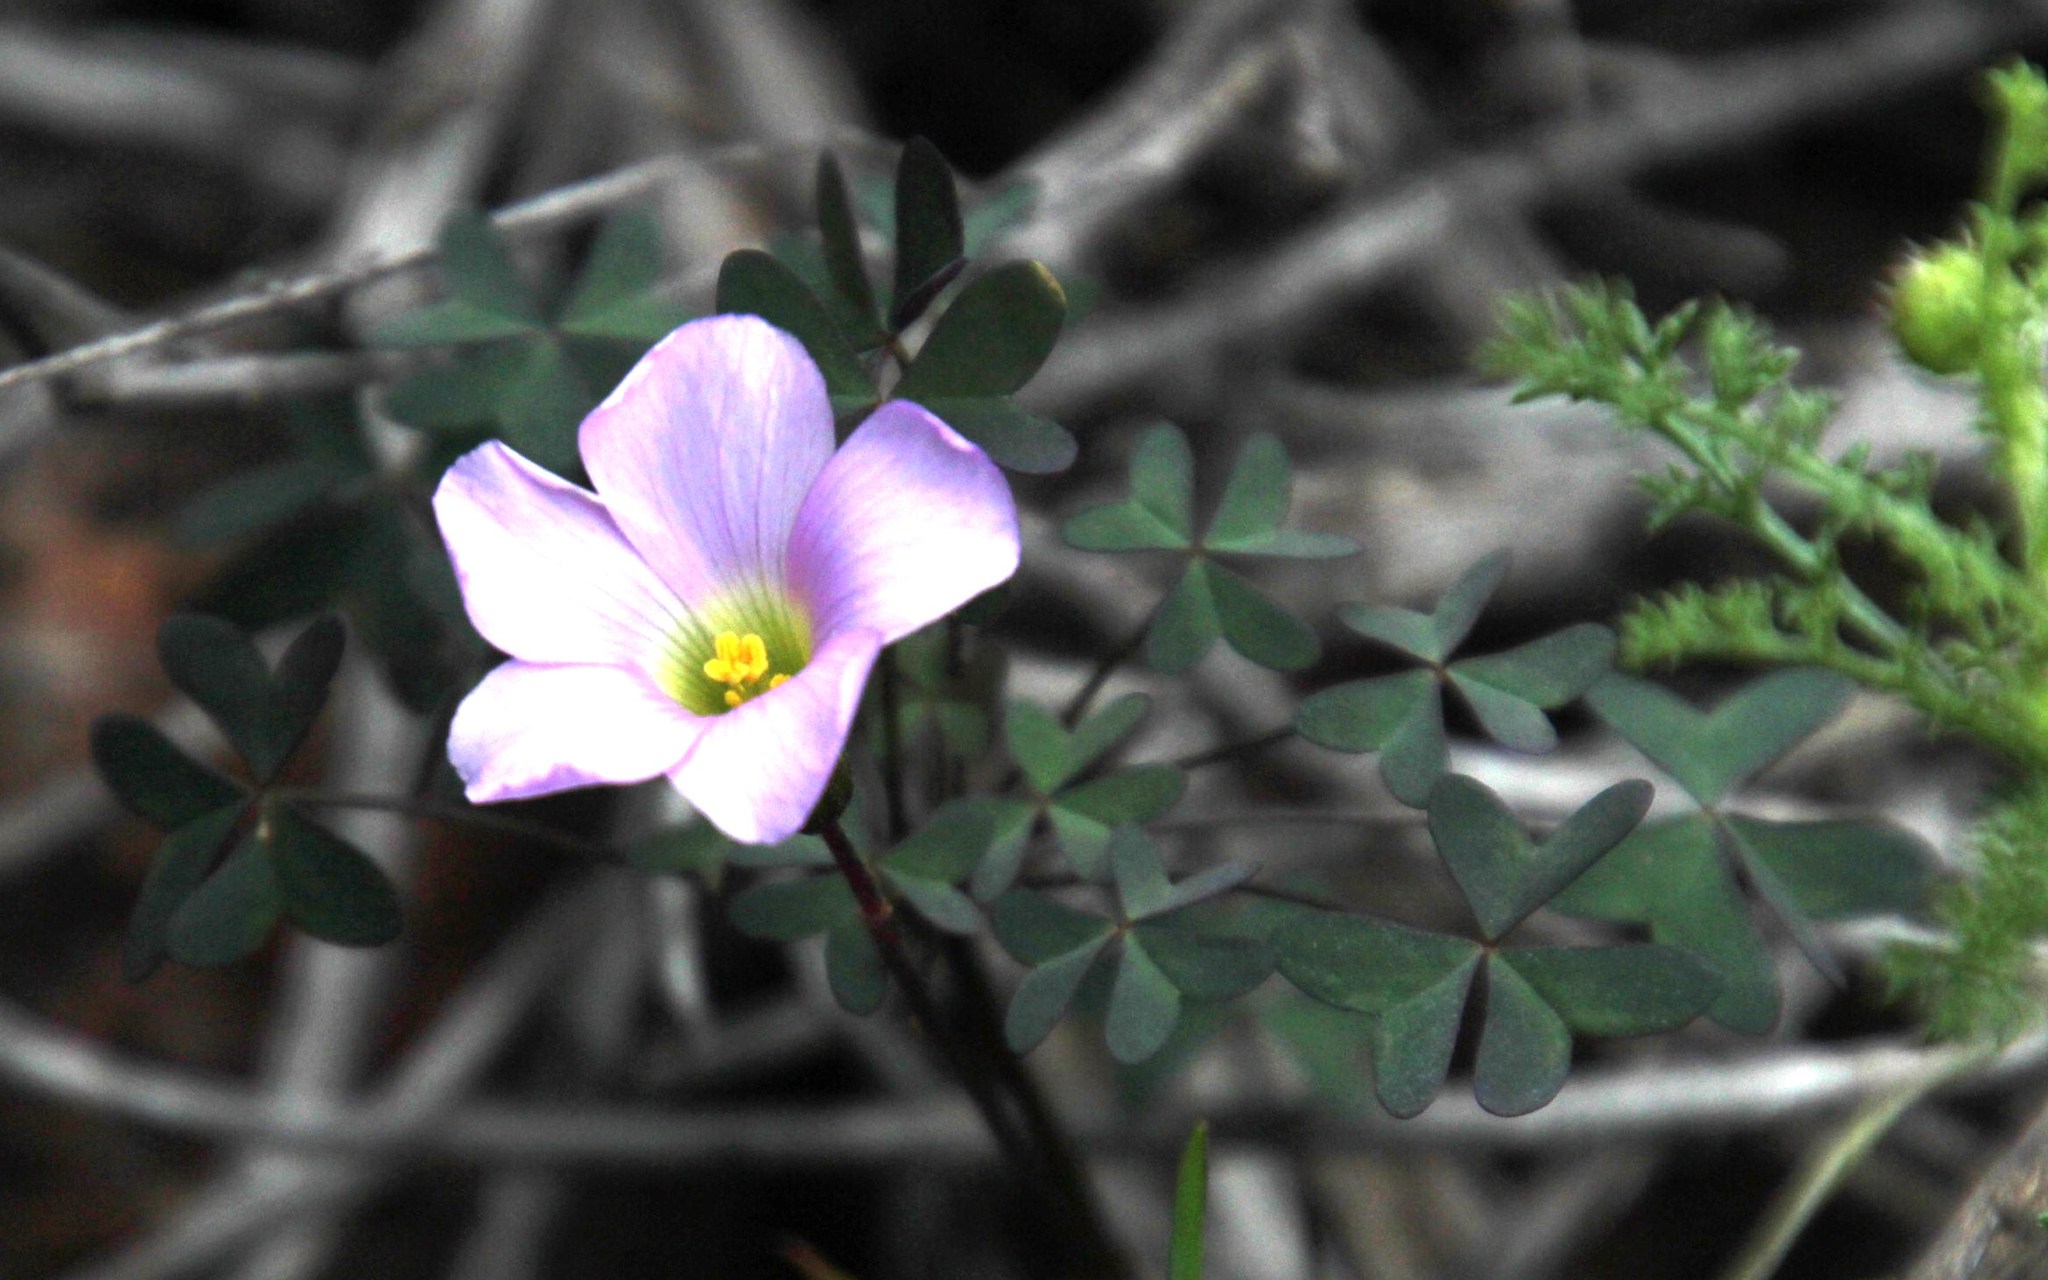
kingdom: Plantae
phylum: Tracheophyta
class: Magnoliopsida
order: Oxalidales
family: Oxalidaceae
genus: Oxalis
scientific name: Oxalis comosa
